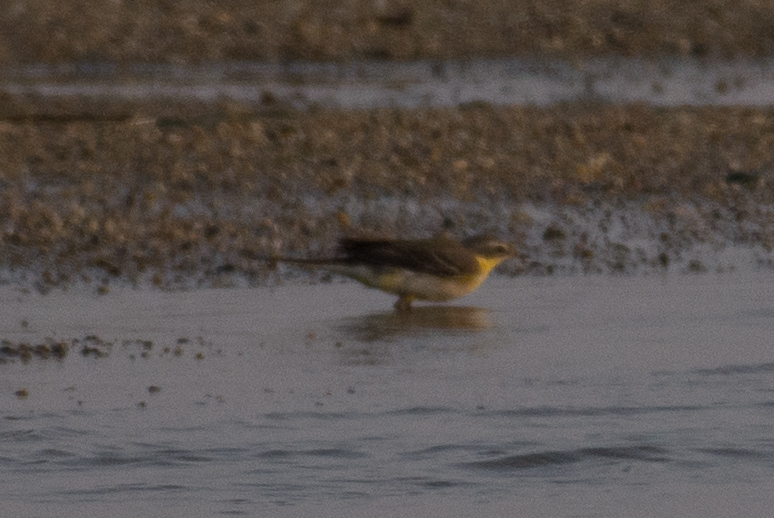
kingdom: Animalia
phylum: Chordata
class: Aves
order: Passeriformes
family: Motacillidae
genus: Motacilla
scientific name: Motacilla tschutschensis
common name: Eastern yellow wagtail
